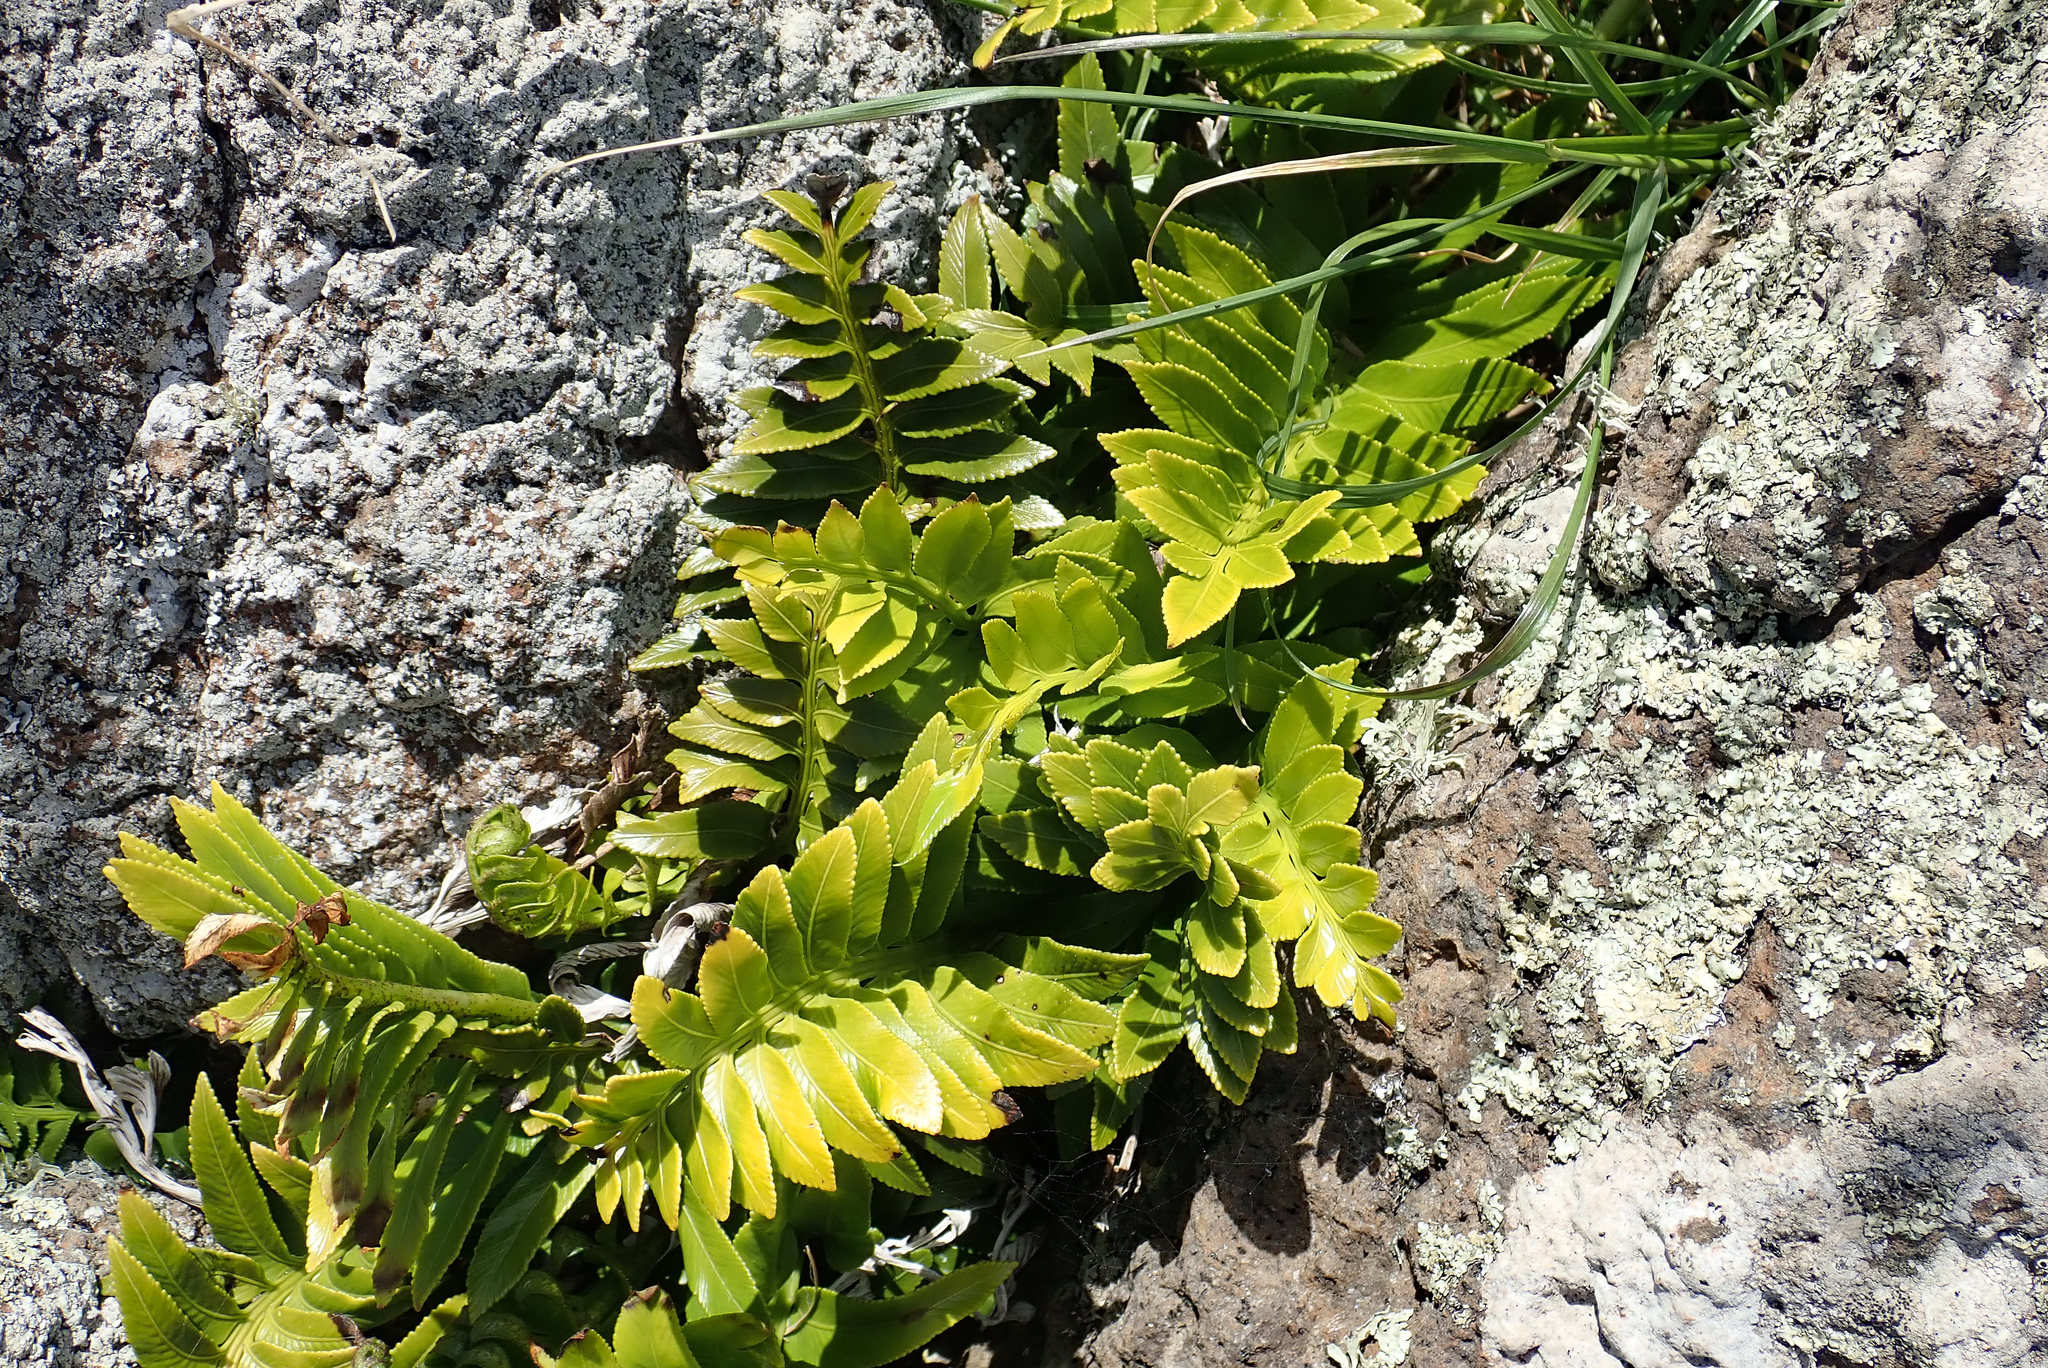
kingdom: Plantae
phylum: Tracheophyta
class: Polypodiopsida
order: Polypodiales
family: Aspleniaceae
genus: Asplenium
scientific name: Asplenium obtusatum
